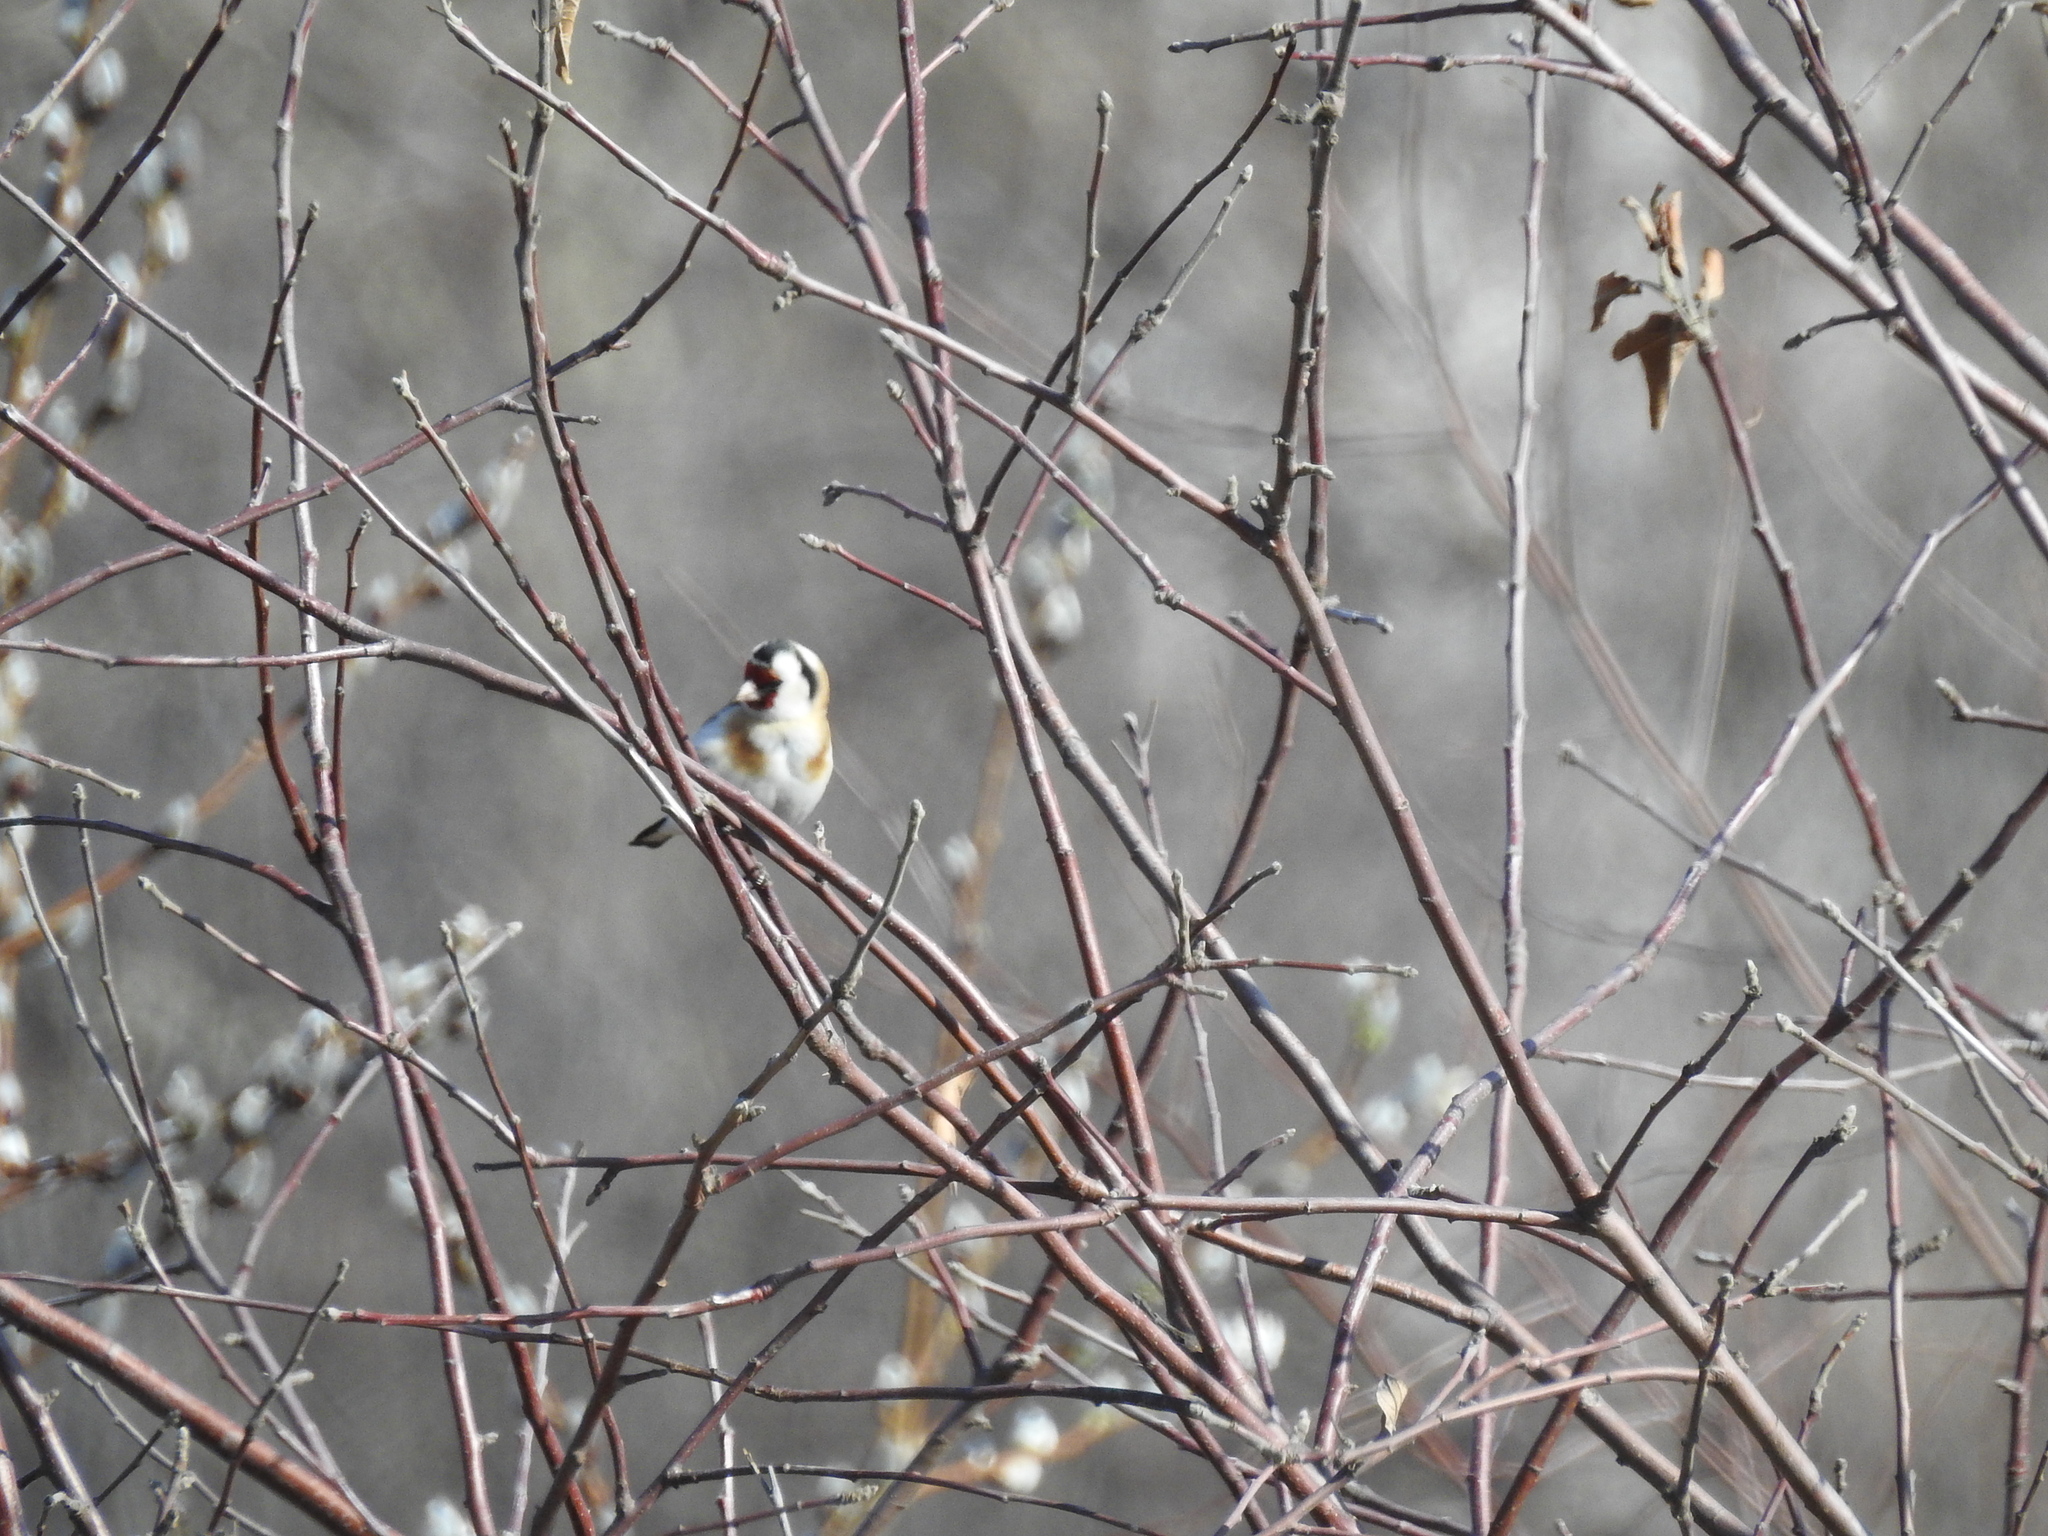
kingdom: Animalia
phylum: Chordata
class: Aves
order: Passeriformes
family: Fringillidae
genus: Carduelis
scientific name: Carduelis carduelis
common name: European goldfinch
